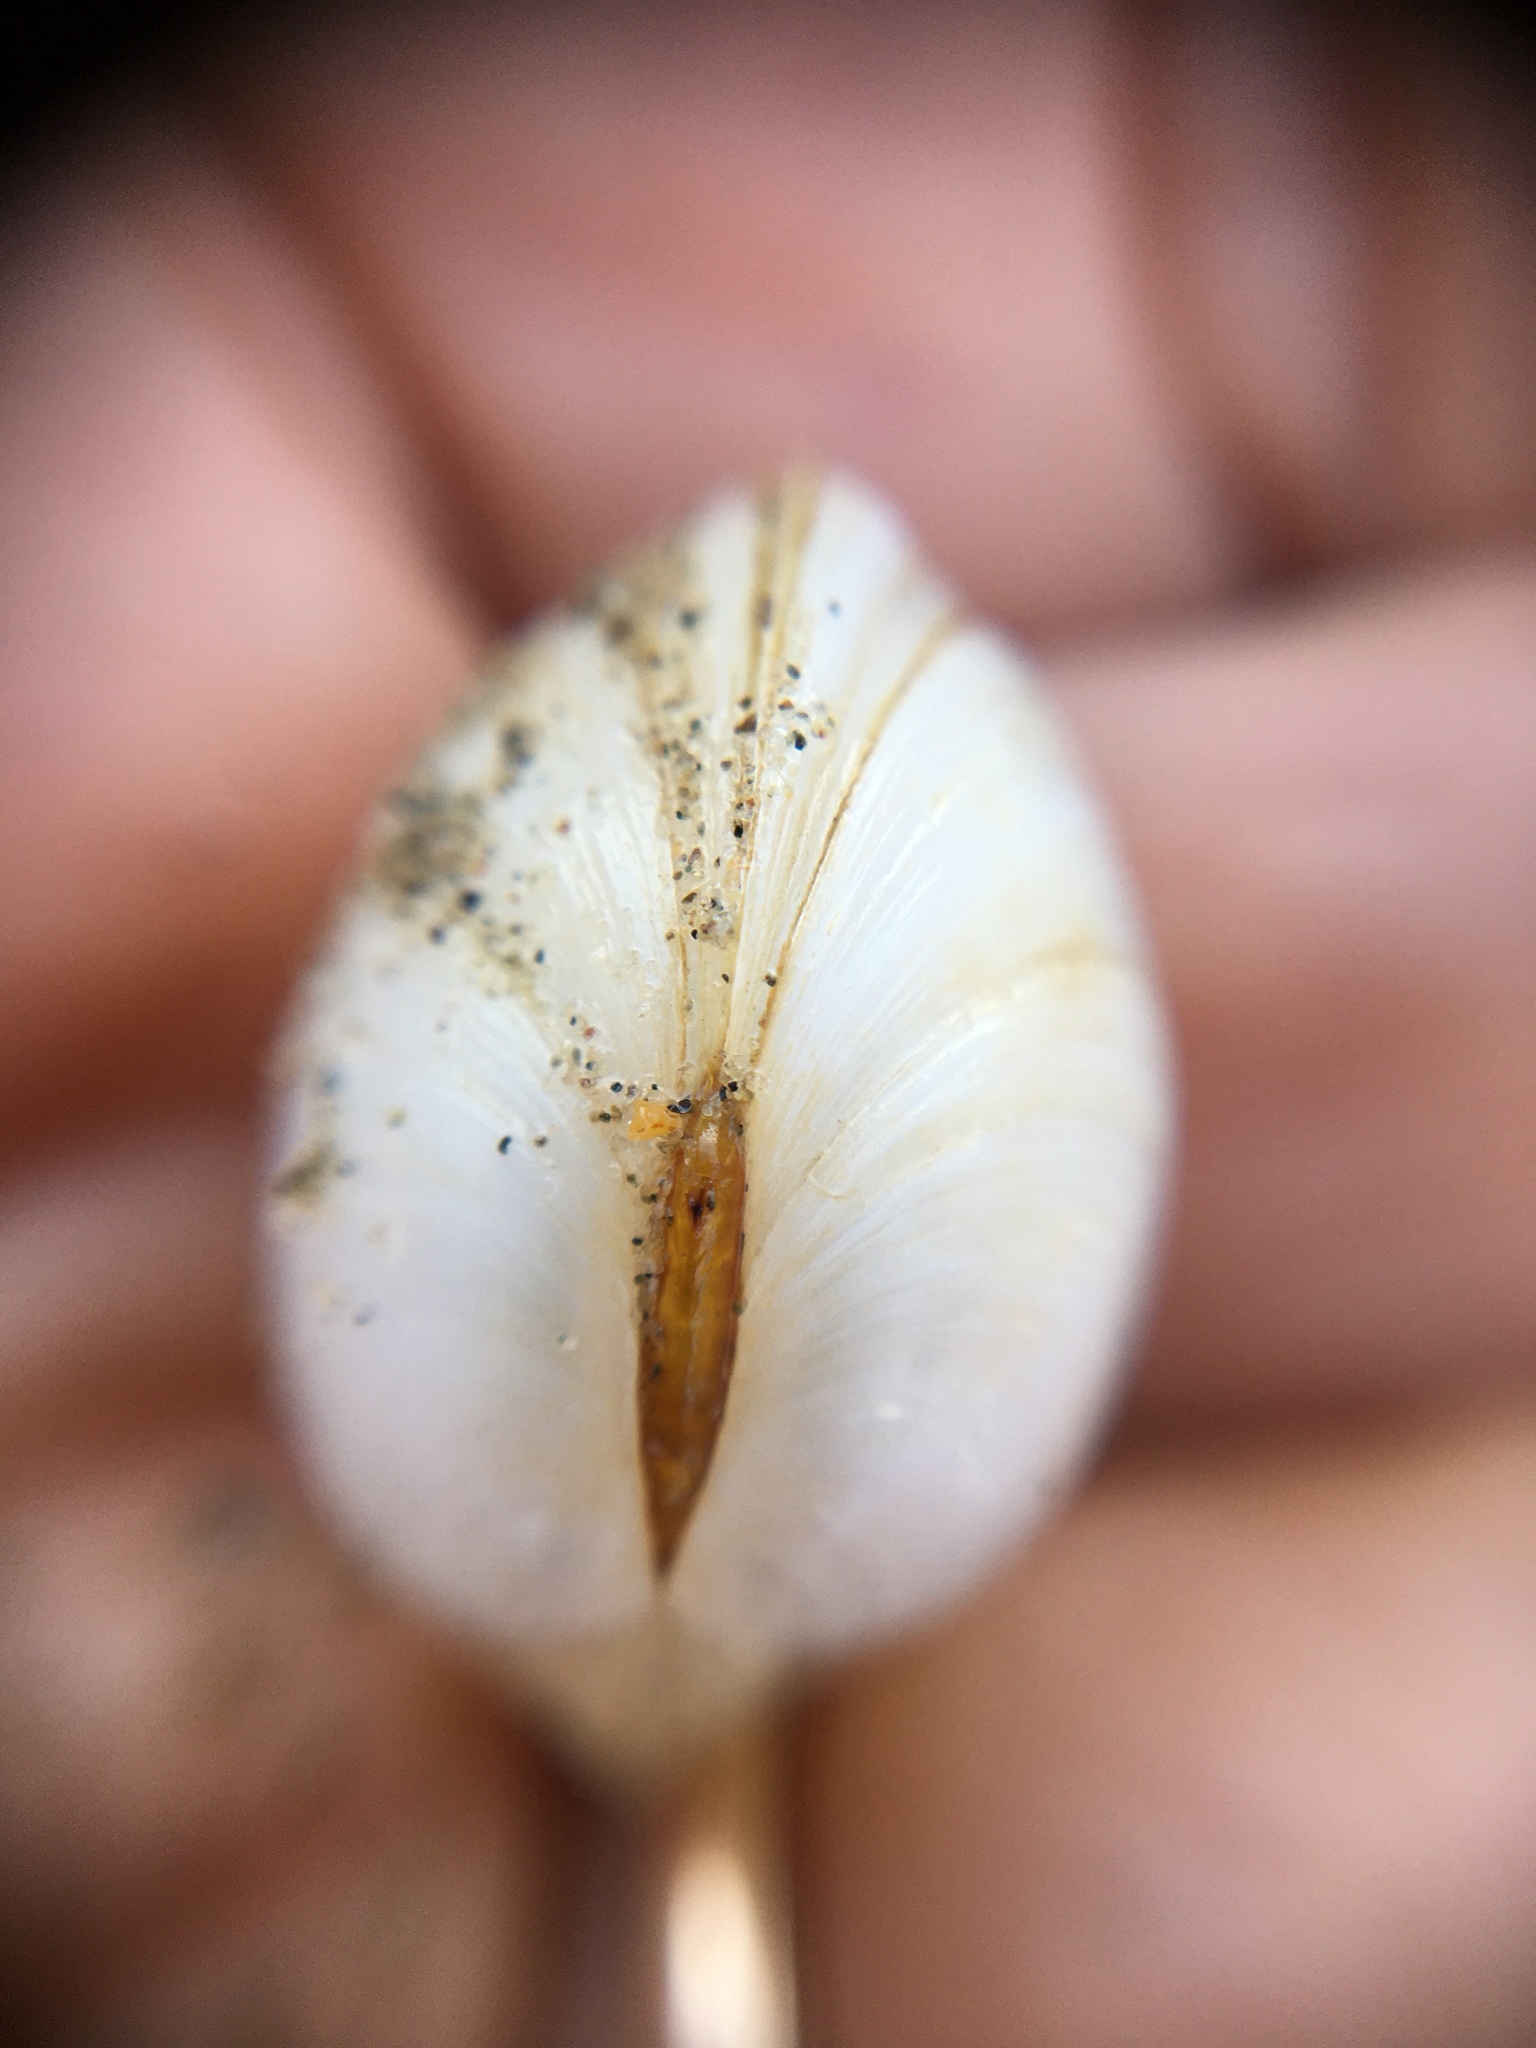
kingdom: Animalia
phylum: Mollusca
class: Bivalvia
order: Venerida
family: Ungulinidae
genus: Zemysina
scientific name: Zemysina orbella
